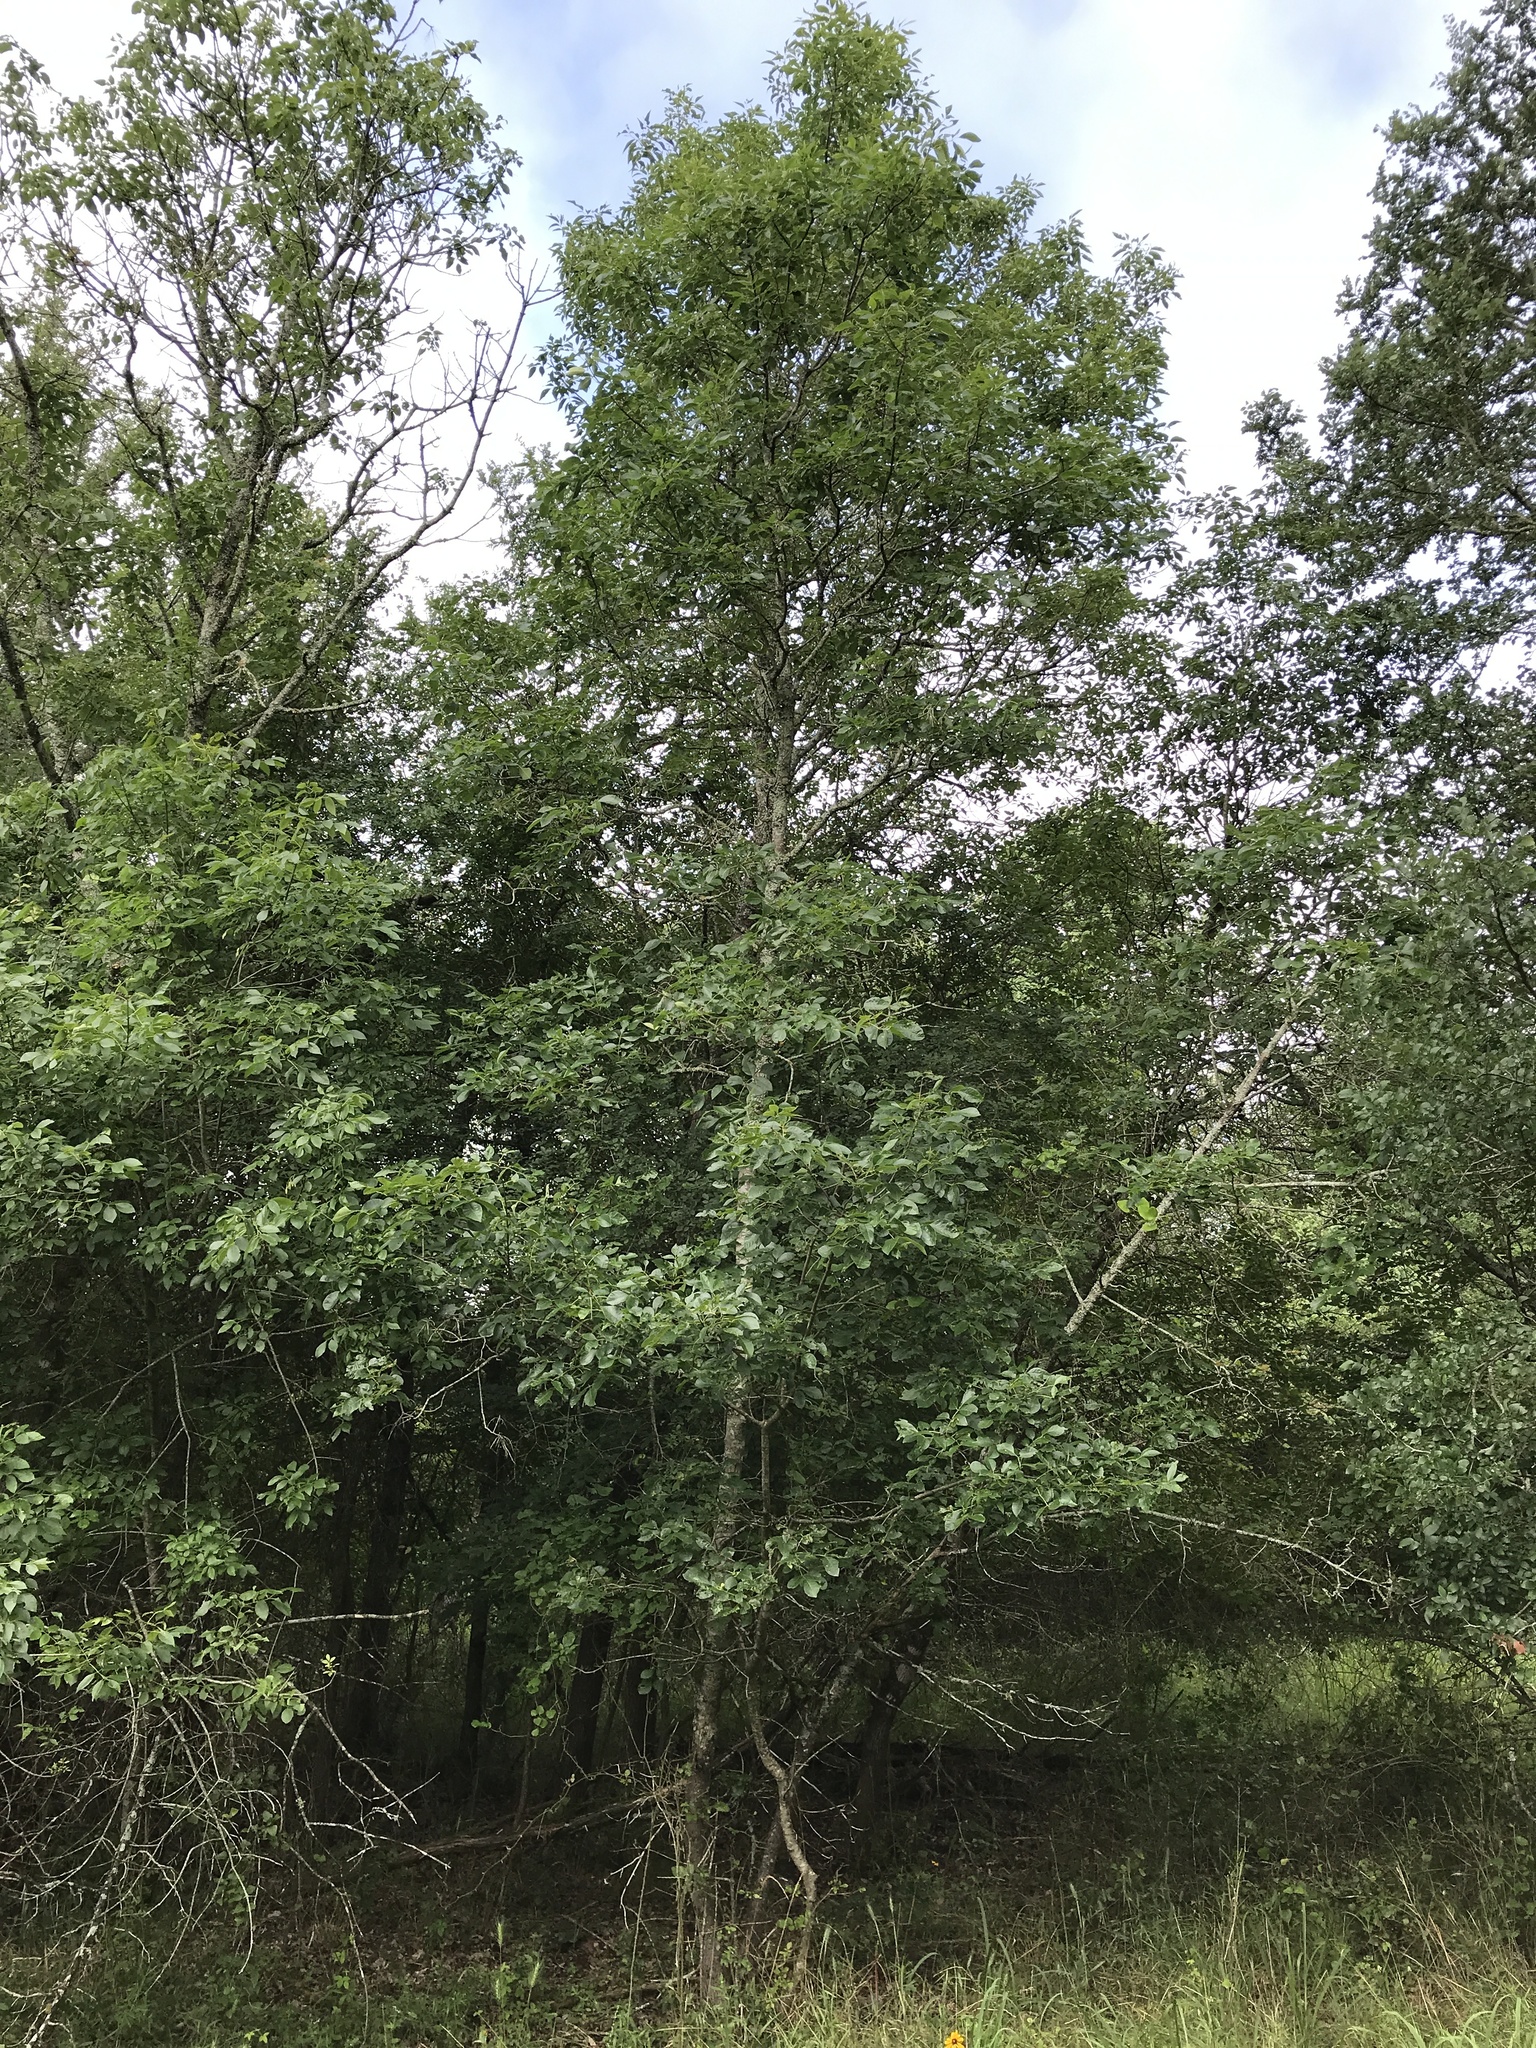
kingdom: Plantae
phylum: Tracheophyta
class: Magnoliopsida
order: Lamiales
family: Oleaceae
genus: Fraxinus
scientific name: Fraxinus albicans
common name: Texas ash
